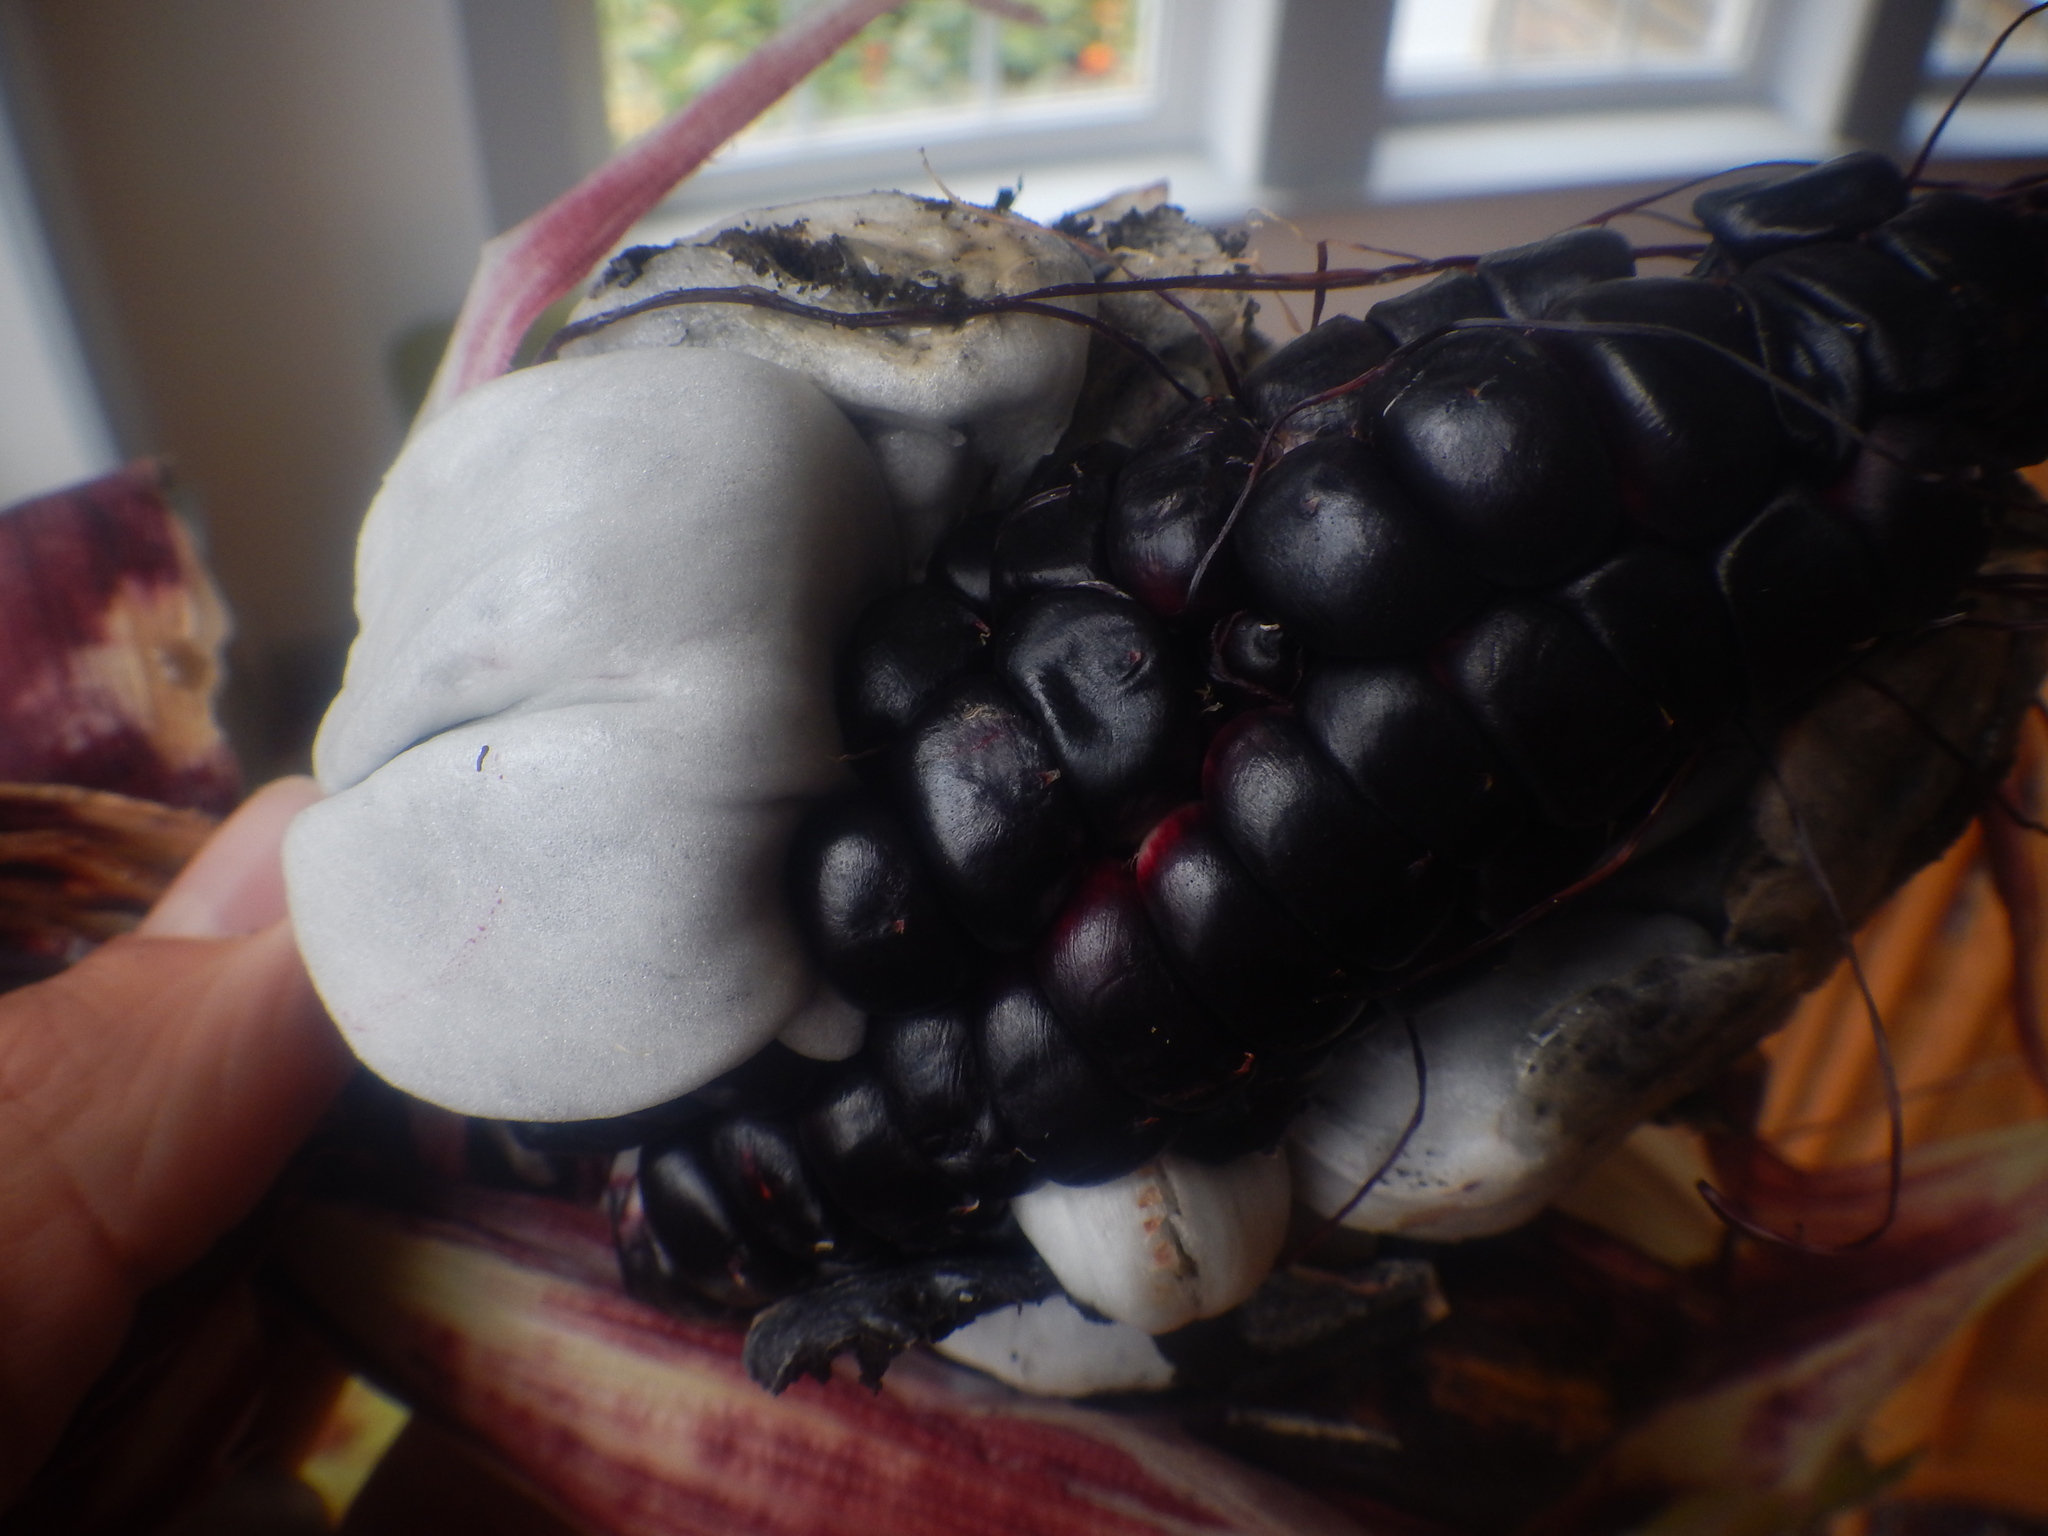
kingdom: Fungi
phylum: Basidiomycota
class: Ustilaginomycetes
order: Ustilaginales
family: Ustilaginaceae
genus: Mycosarcoma
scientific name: Mycosarcoma maydis
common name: Corn smut
